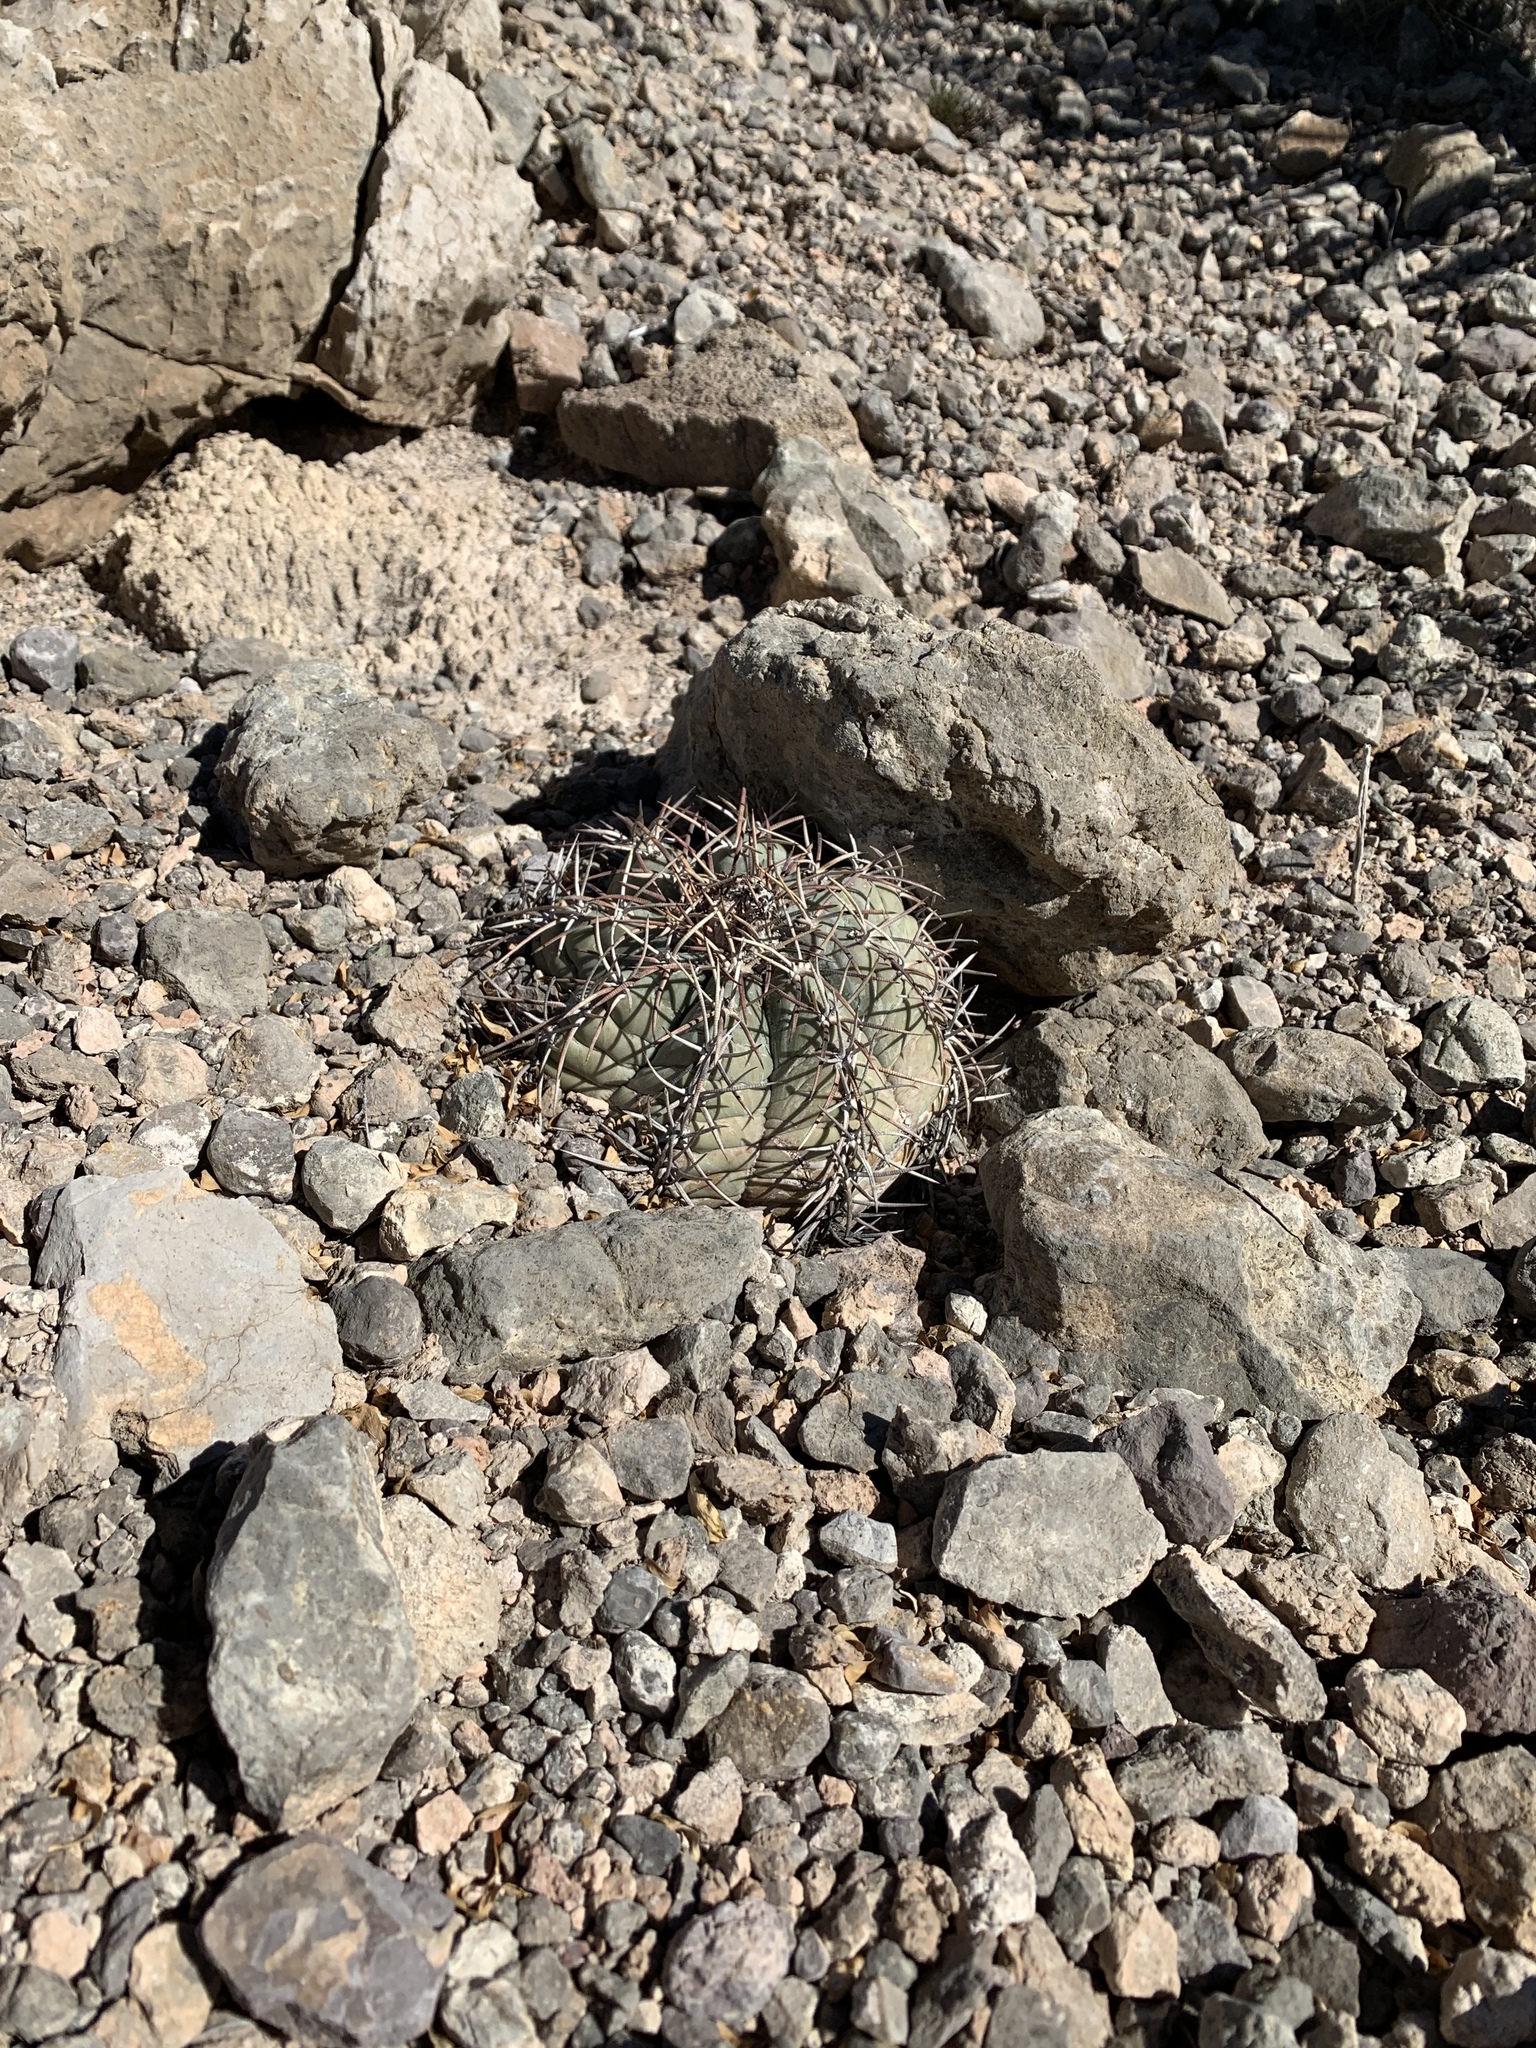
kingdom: Plantae
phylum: Tracheophyta
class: Magnoliopsida
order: Caryophyllales
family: Cactaceae
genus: Echinocactus
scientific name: Echinocactus horizonthalonius
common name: Devilshead
